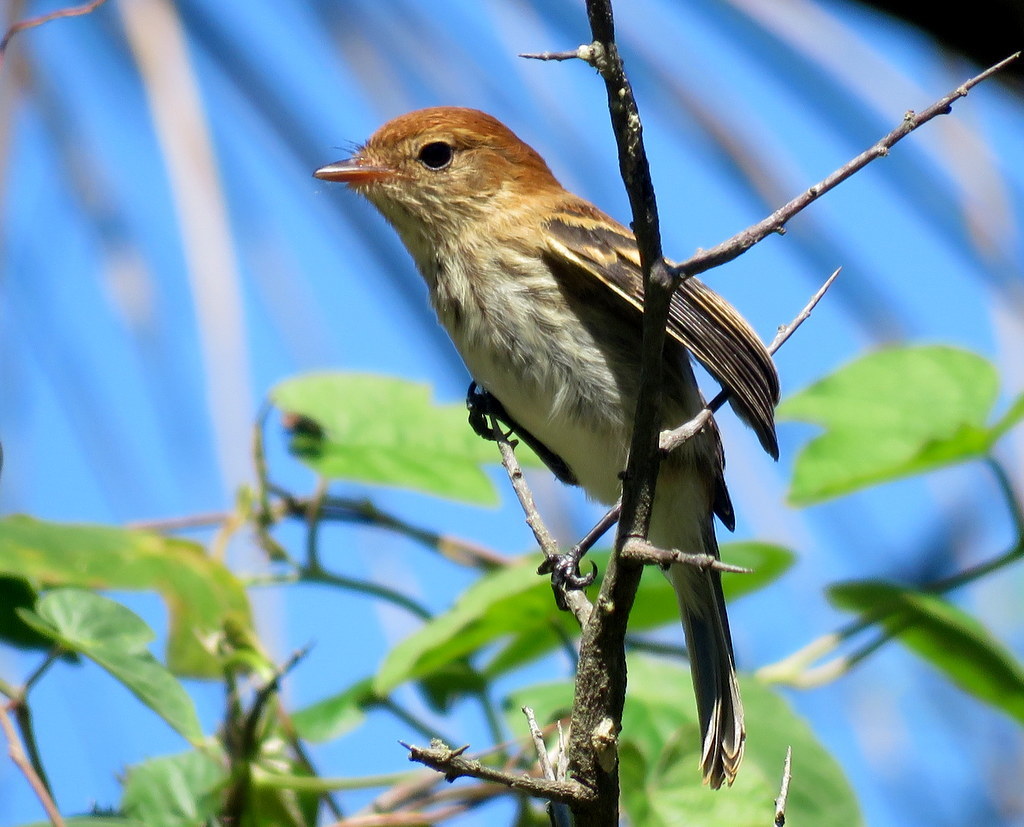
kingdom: Animalia
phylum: Chordata
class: Aves
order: Passeriformes
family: Tyrannidae
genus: Myiophobus
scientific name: Myiophobus fasciatus
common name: Bran-colored flycatcher
